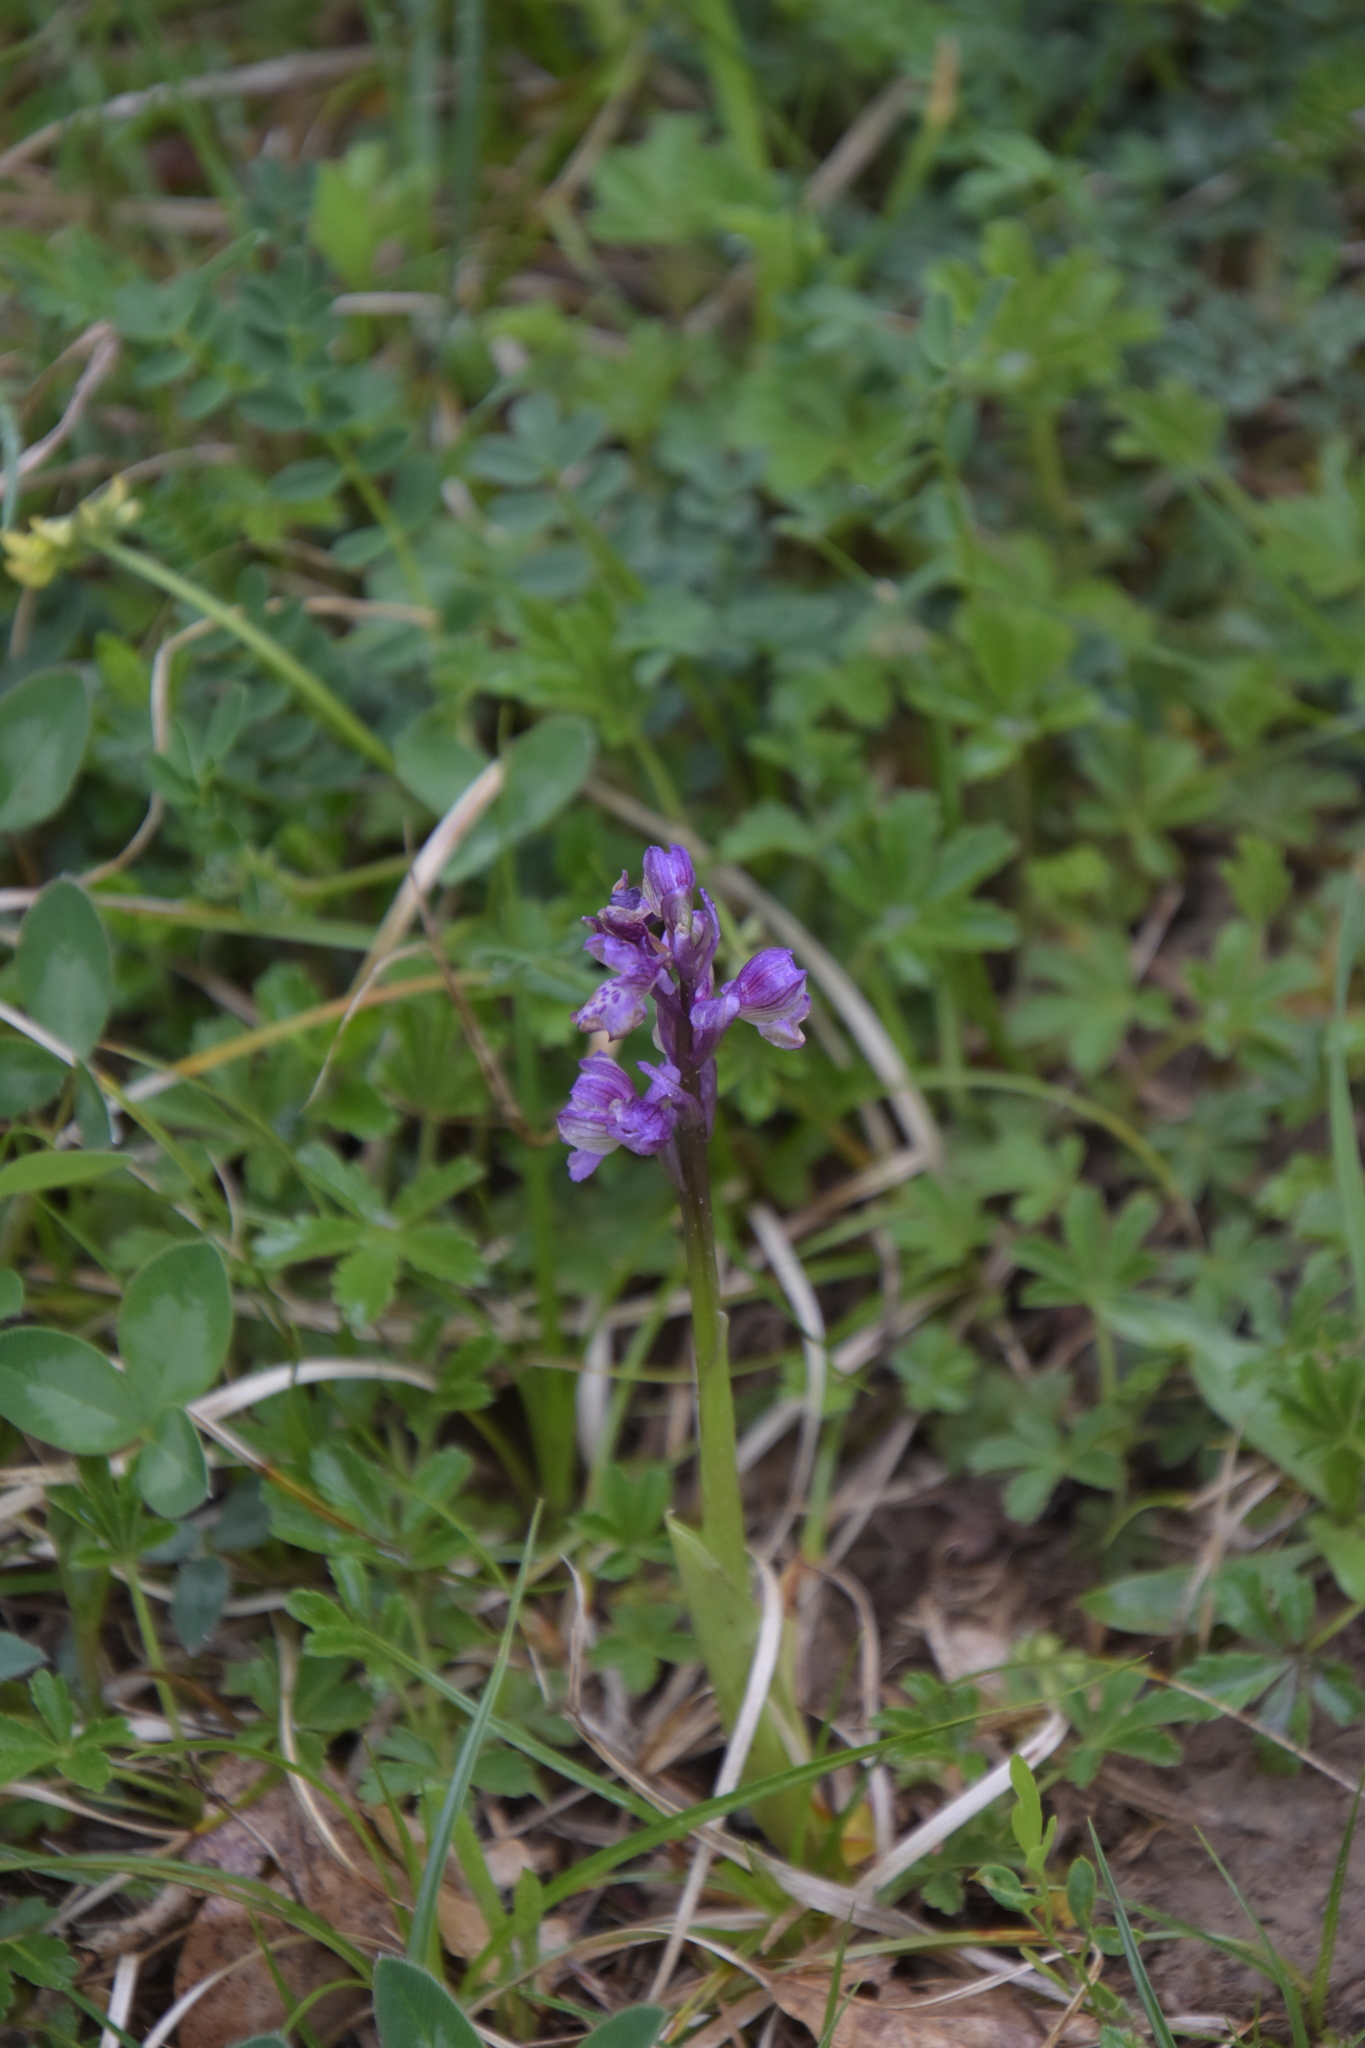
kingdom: Plantae
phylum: Tracheophyta
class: Liliopsida
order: Asparagales
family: Orchidaceae
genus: Anacamptis
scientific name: Anacamptis morio
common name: Green-winged orchid
